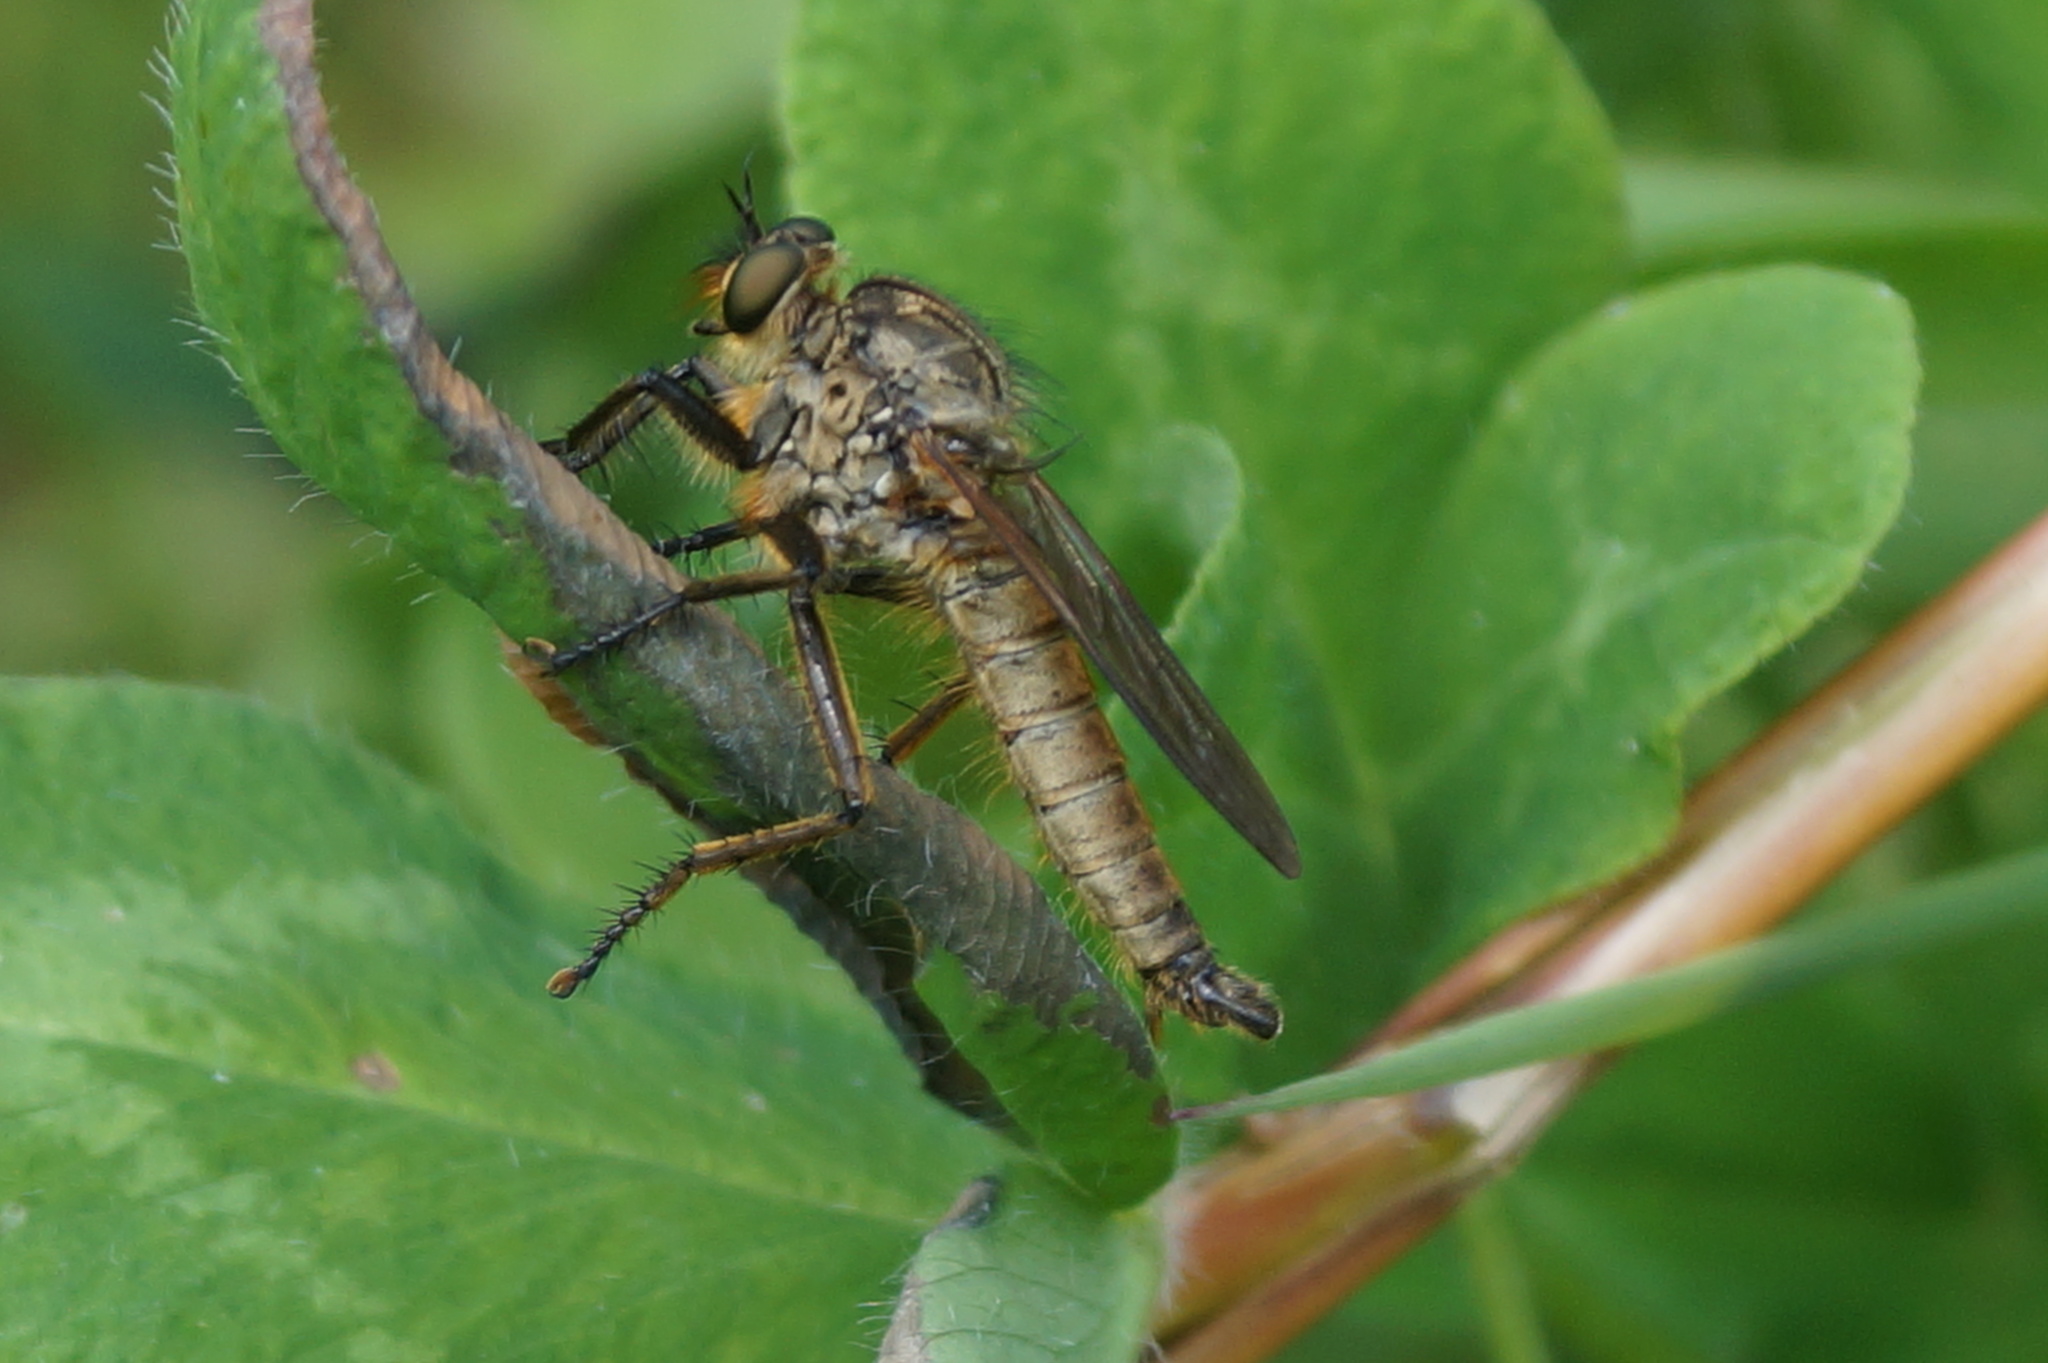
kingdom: Animalia
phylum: Arthropoda
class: Insecta
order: Diptera
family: Asilidae
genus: Eutolmus
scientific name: Eutolmus rufibarbis
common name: Golden-tabbed robberfly
